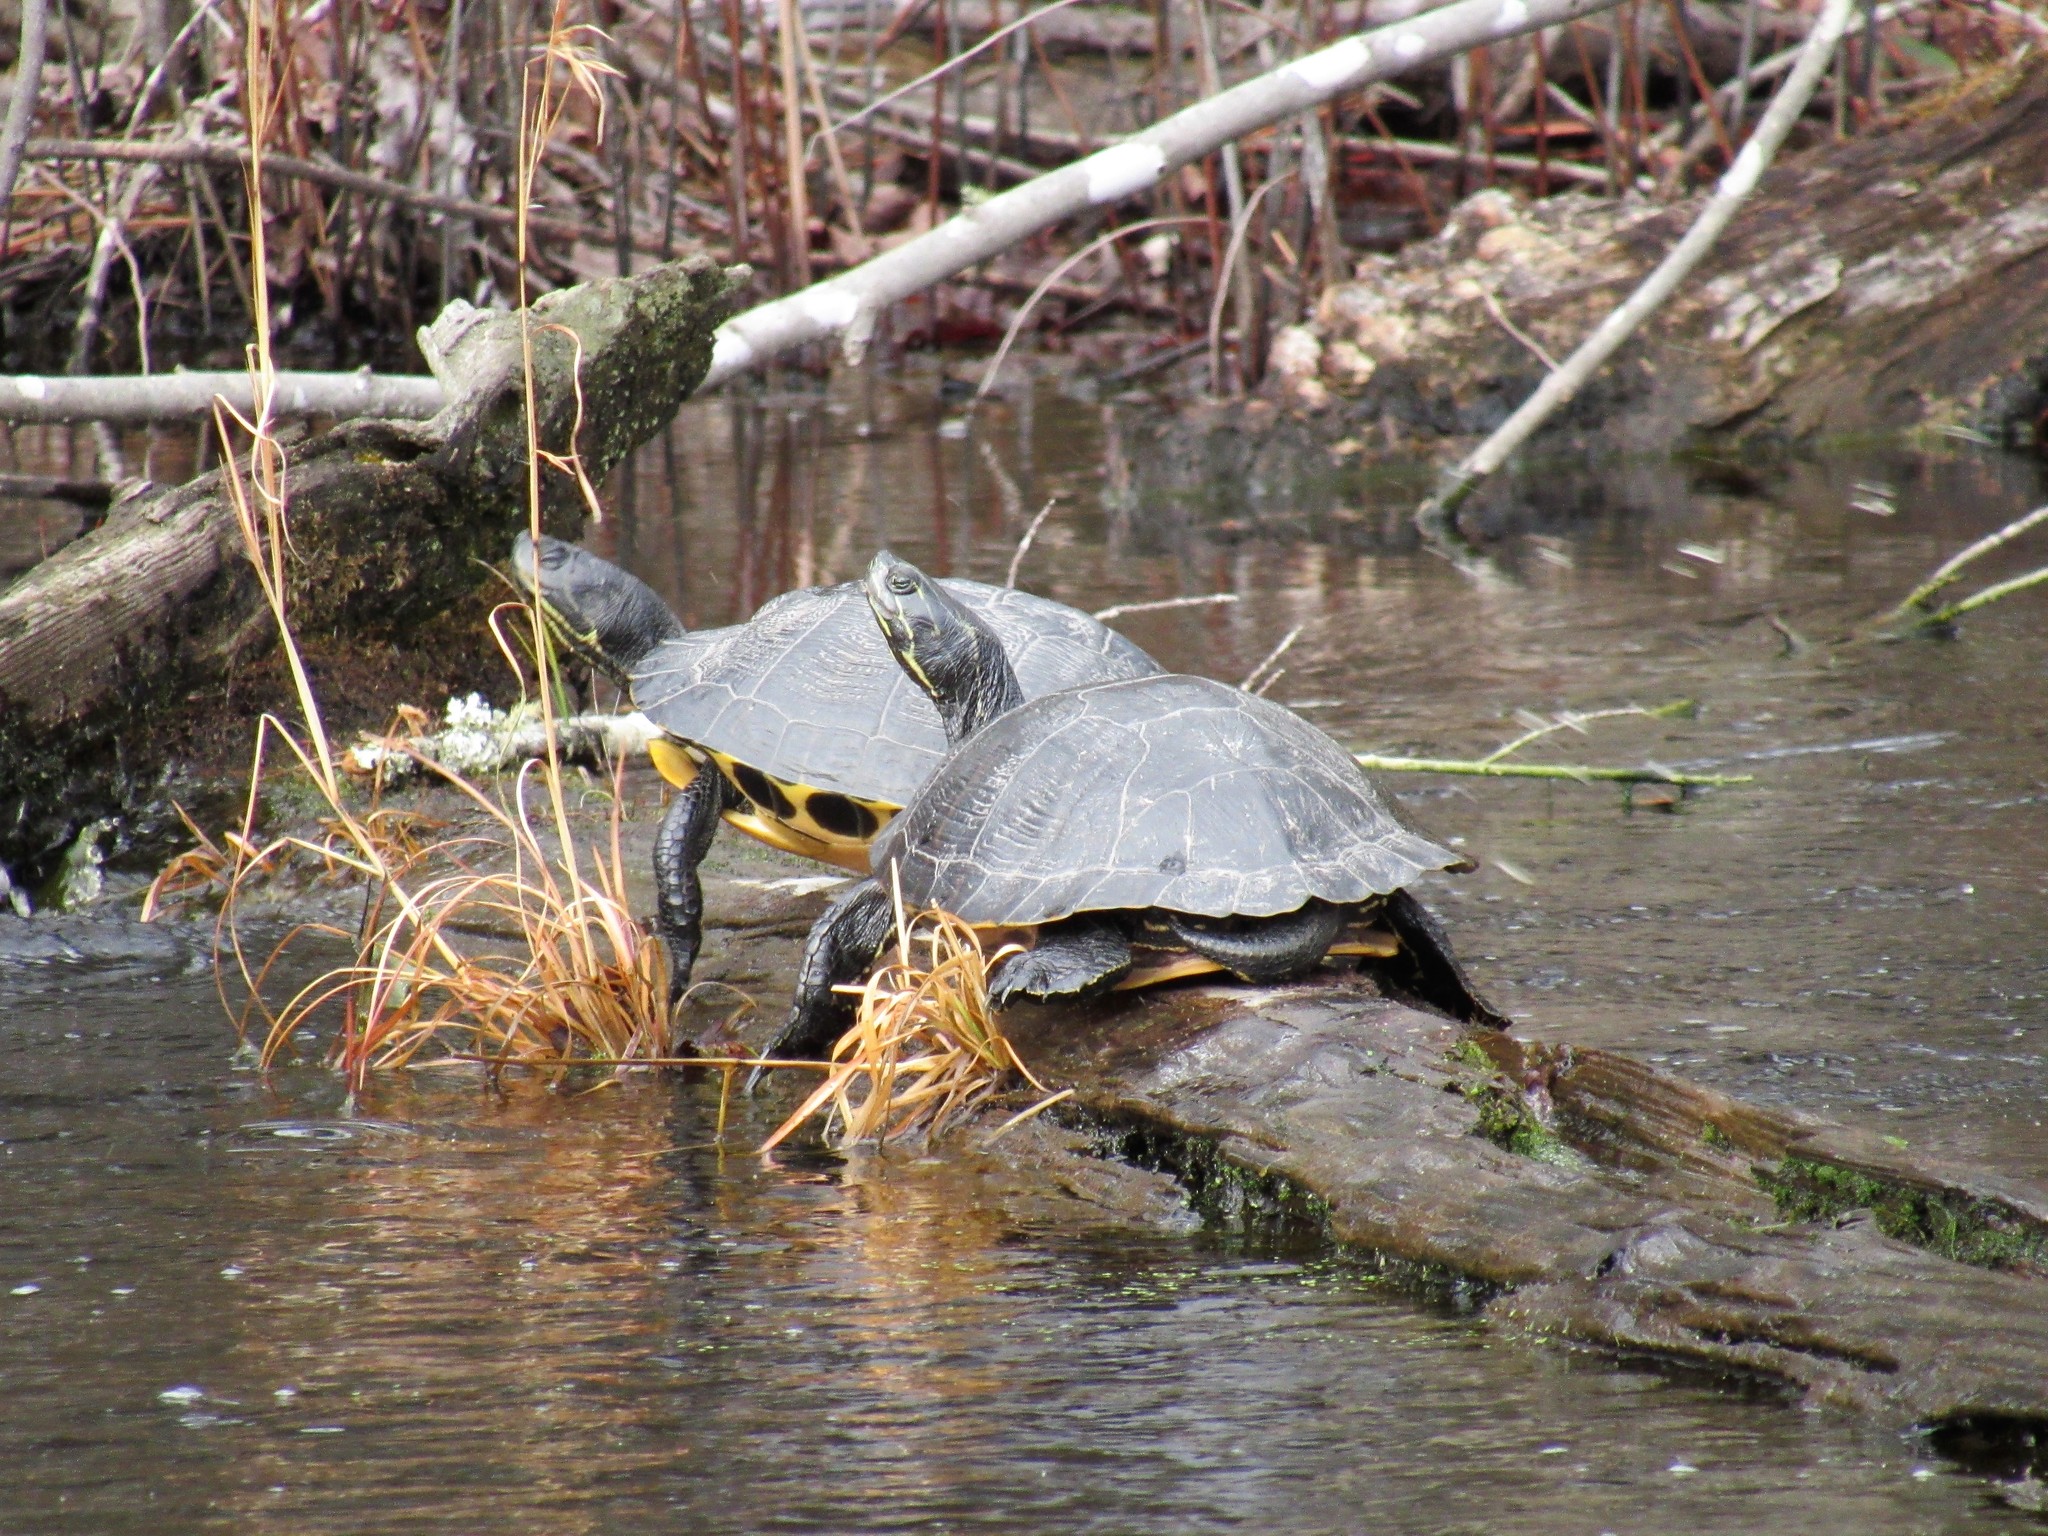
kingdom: Animalia
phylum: Chordata
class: Testudines
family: Emydidae
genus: Trachemys
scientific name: Trachemys scripta
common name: Slider
